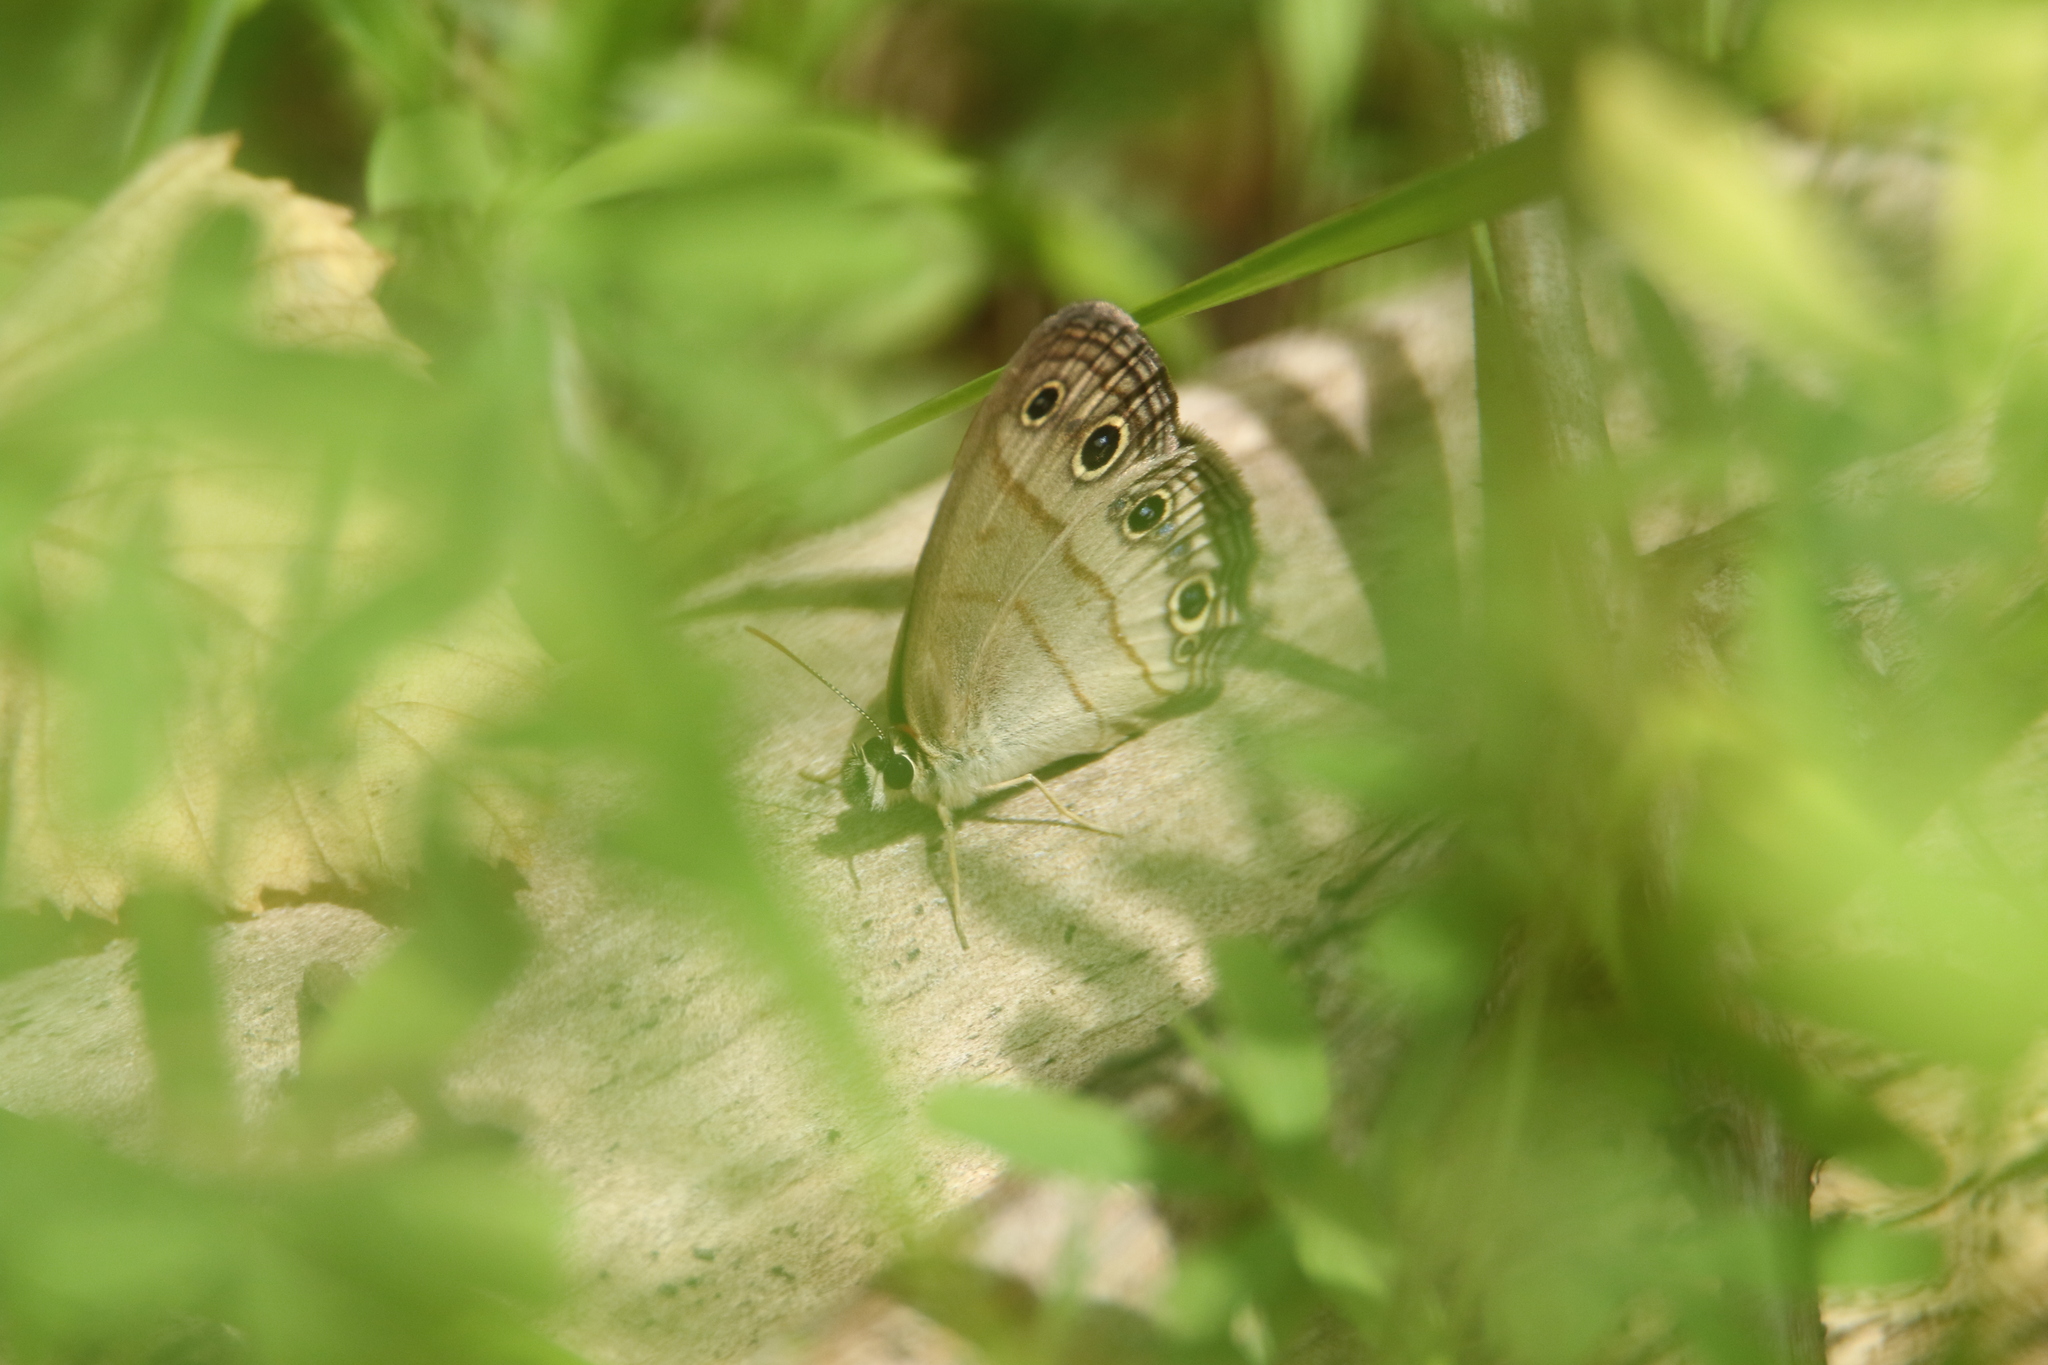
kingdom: Animalia
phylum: Arthropoda
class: Insecta
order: Lepidoptera
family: Nymphalidae
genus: Euptychia
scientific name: Euptychia cymela
